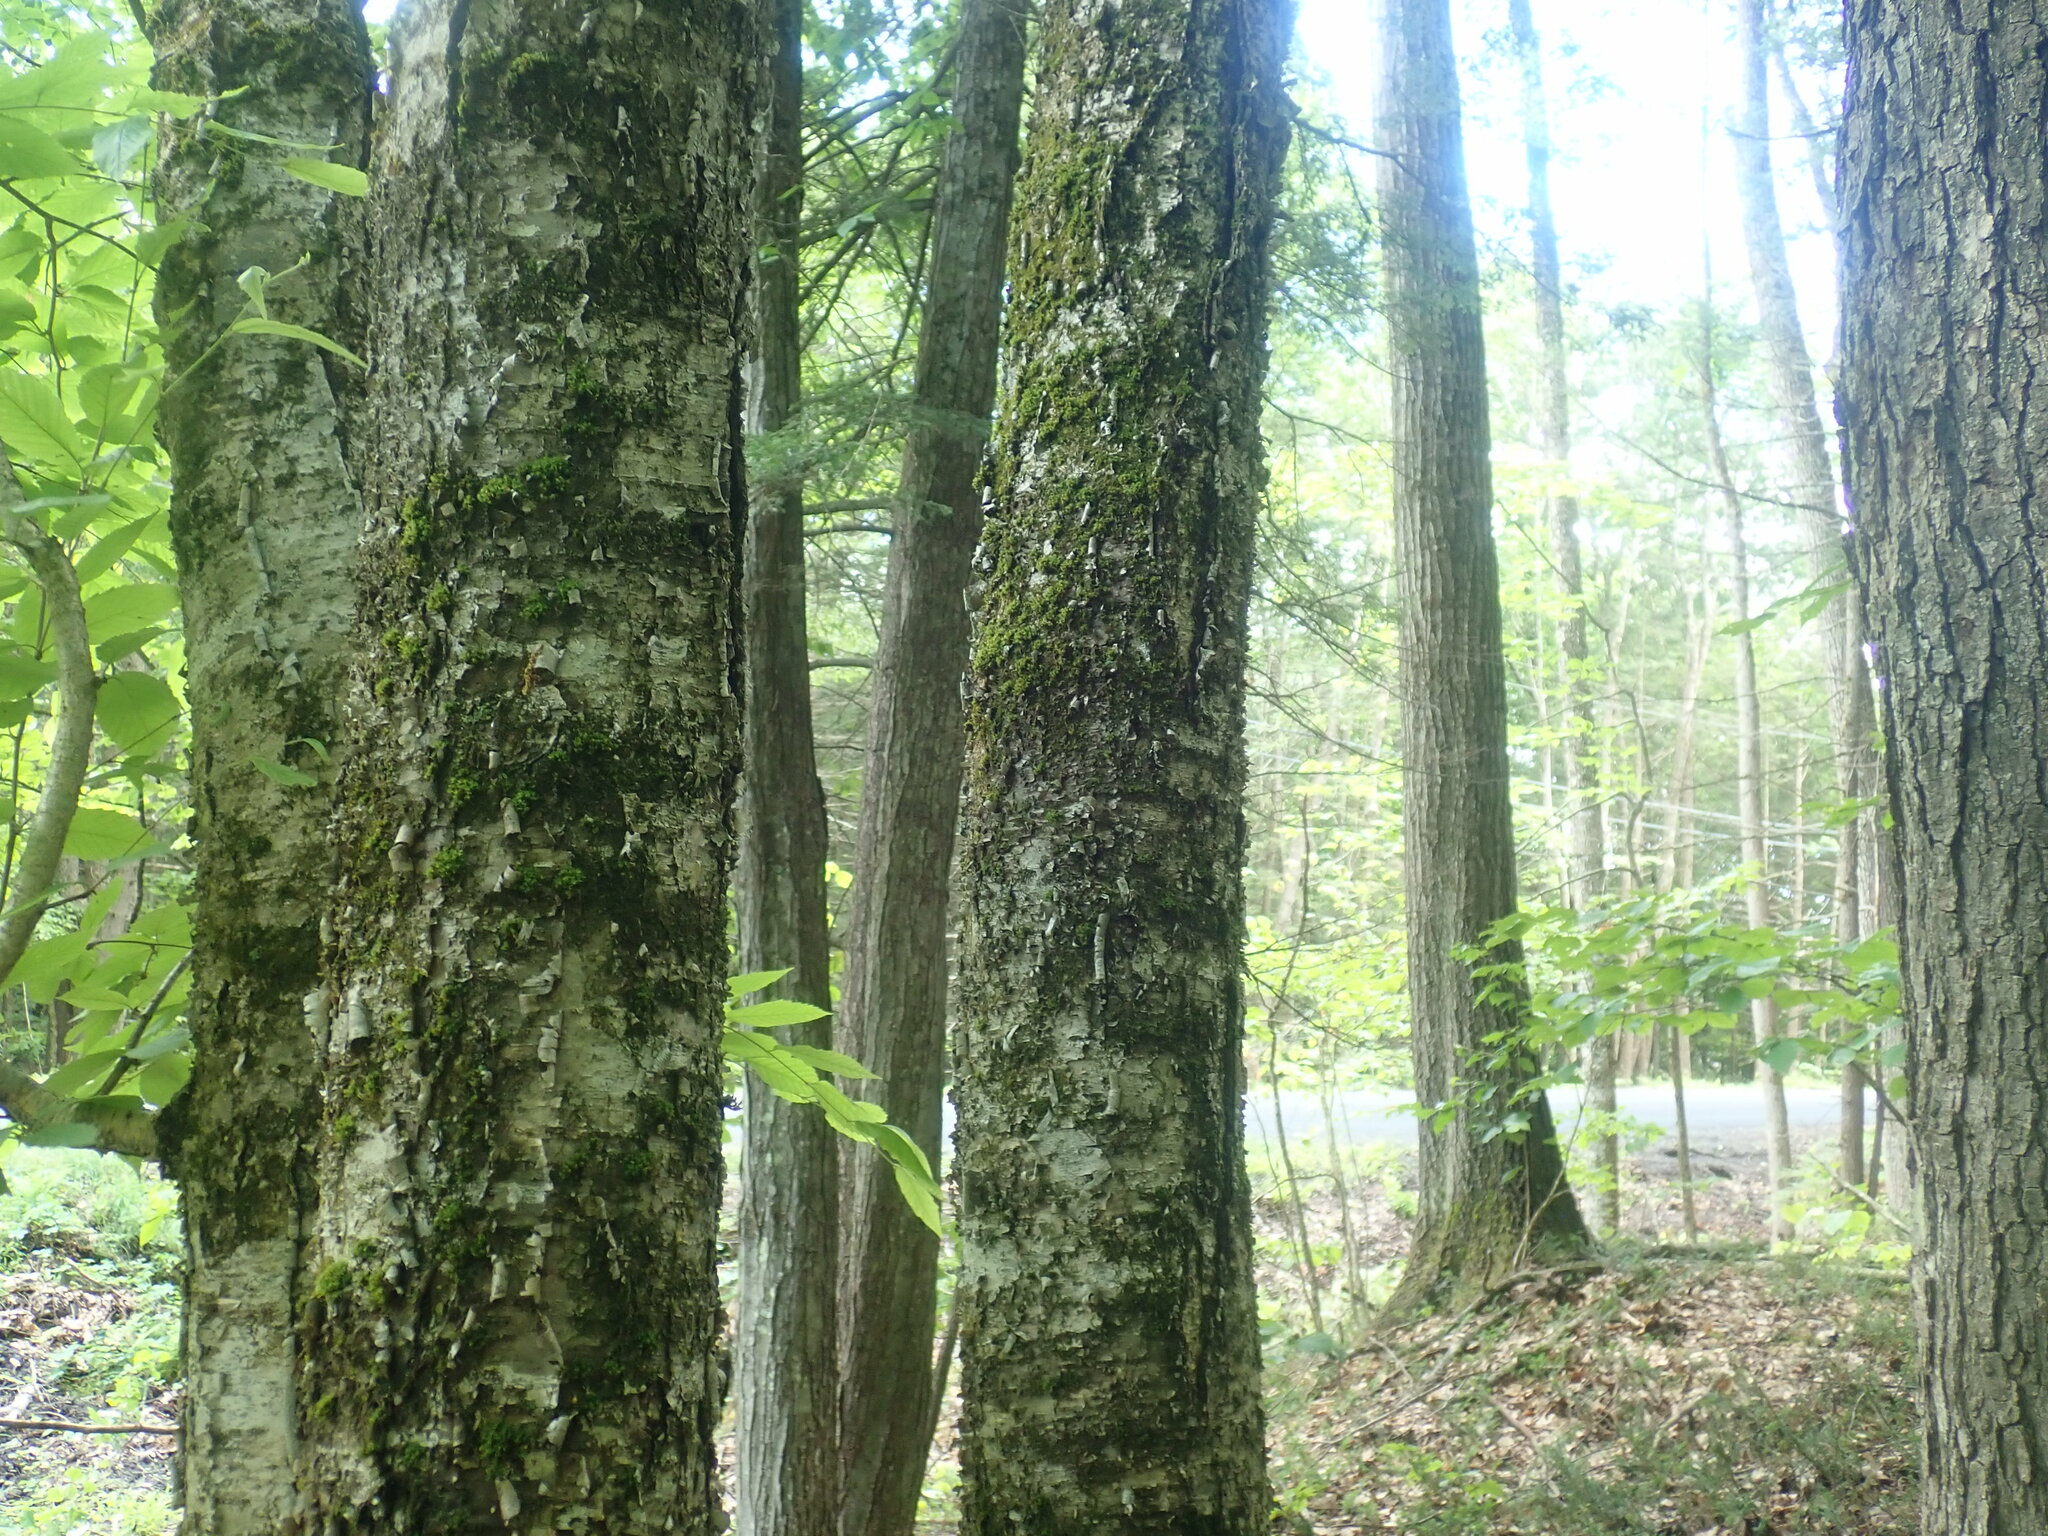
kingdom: Plantae
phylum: Tracheophyta
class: Magnoliopsida
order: Fagales
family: Betulaceae
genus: Betula
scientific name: Betula alleghaniensis
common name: Yellow birch
